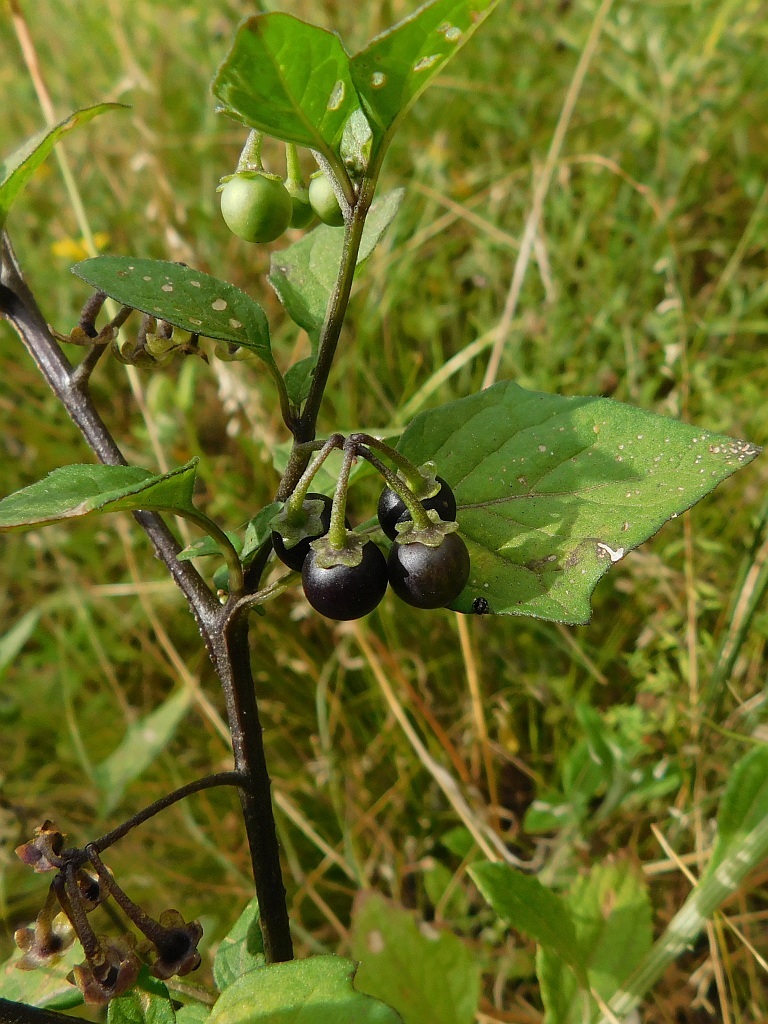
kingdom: Plantae
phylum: Tracheophyta
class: Magnoliopsida
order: Solanales
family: Solanaceae
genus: Solanum
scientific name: Solanum nigrum
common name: Black nightshade
